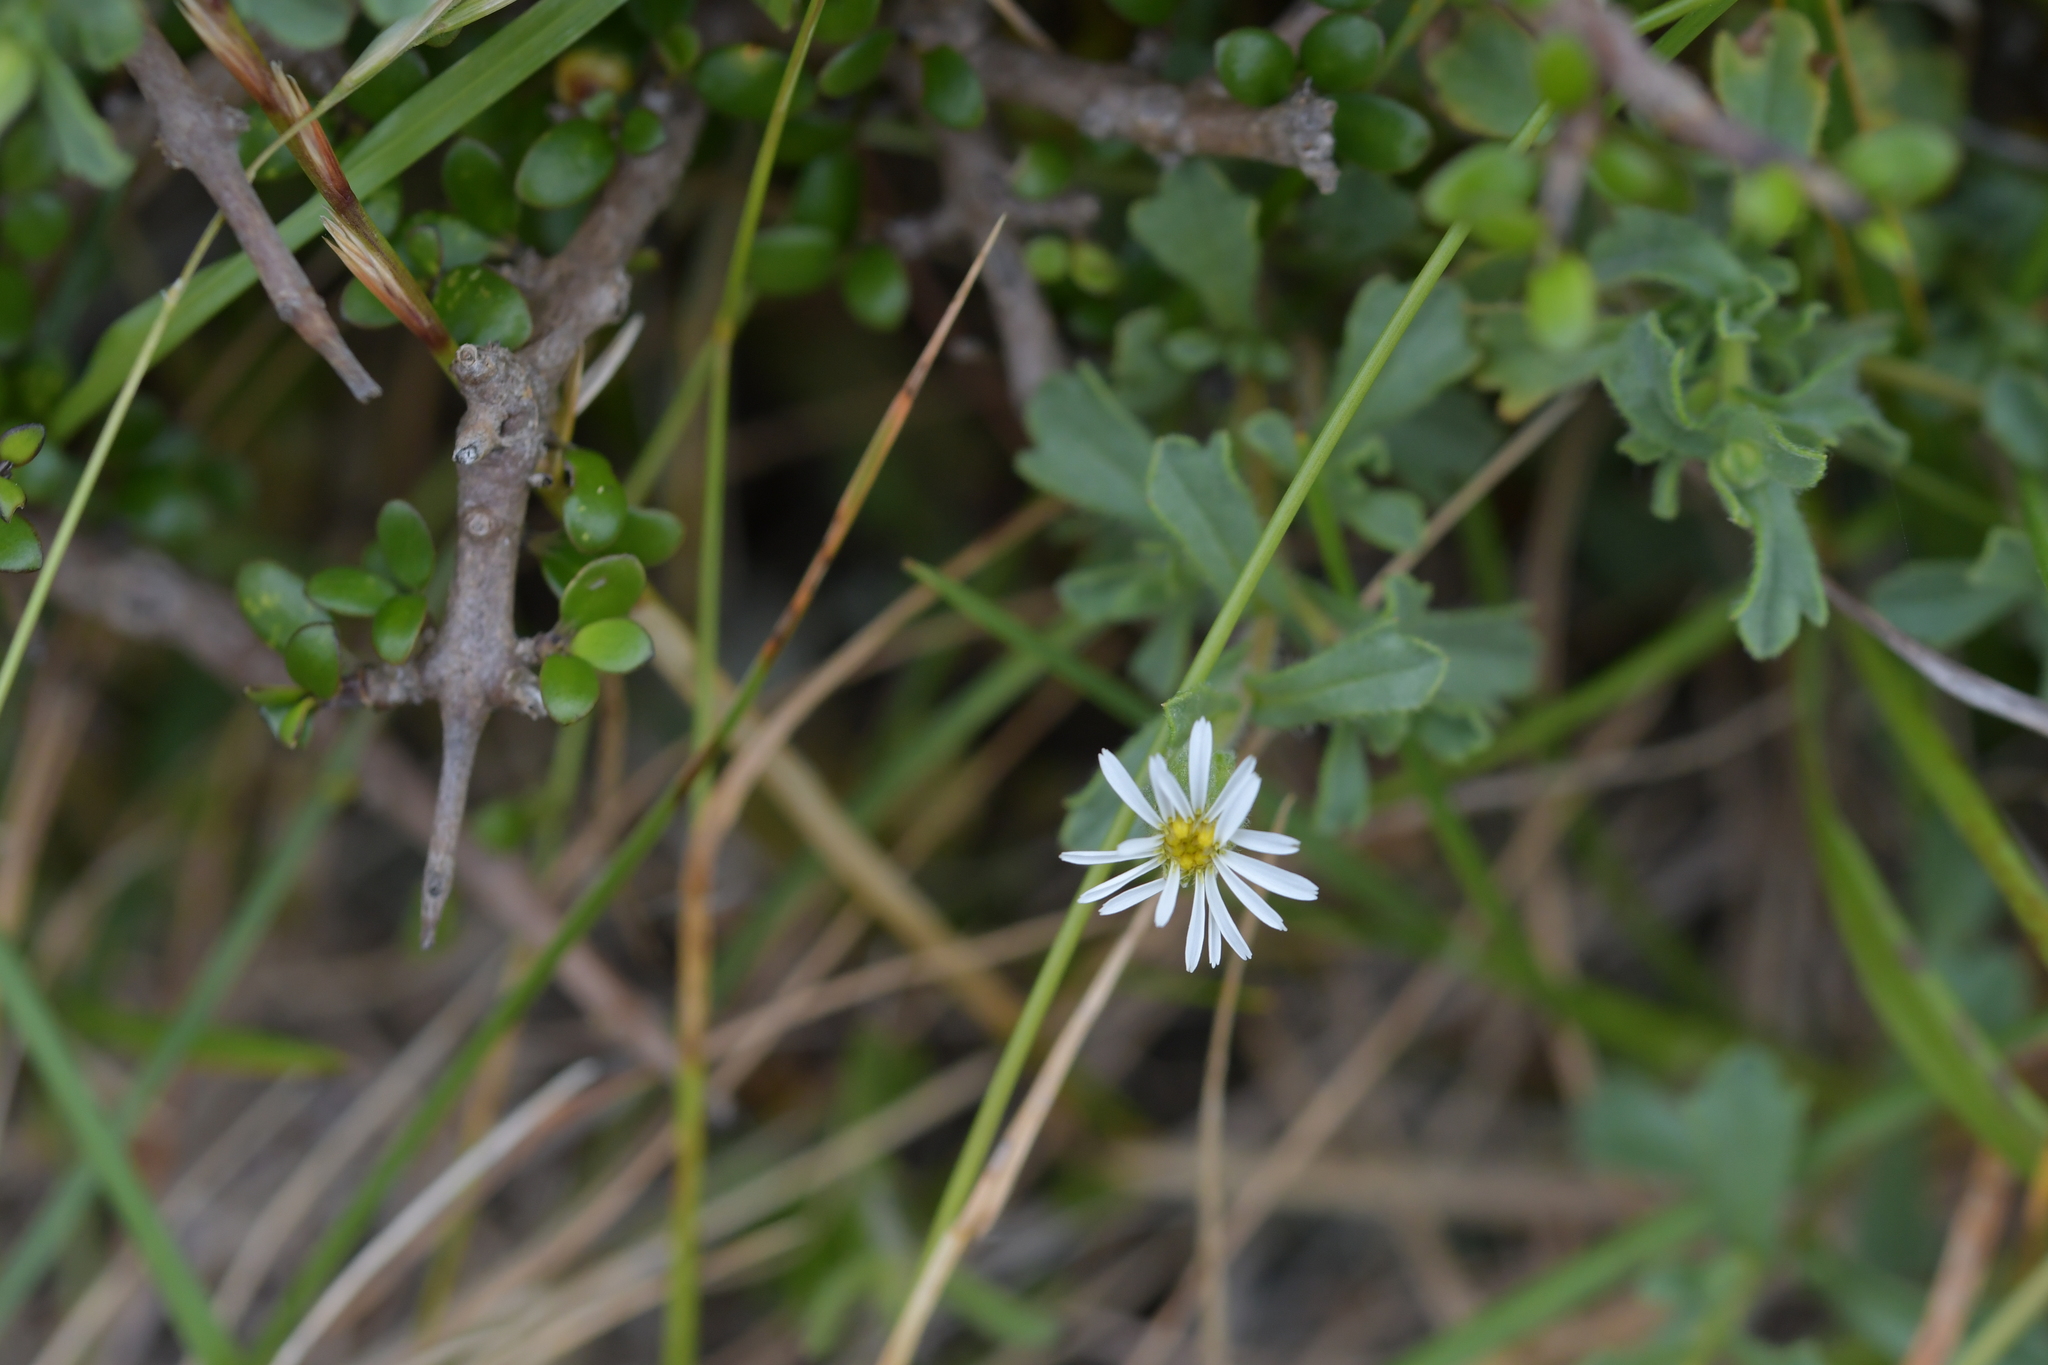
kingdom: Plantae
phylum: Tracheophyta
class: Magnoliopsida
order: Asterales
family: Asteraceae
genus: Vittadinia
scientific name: Vittadinia australis
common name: White fuzzweed
